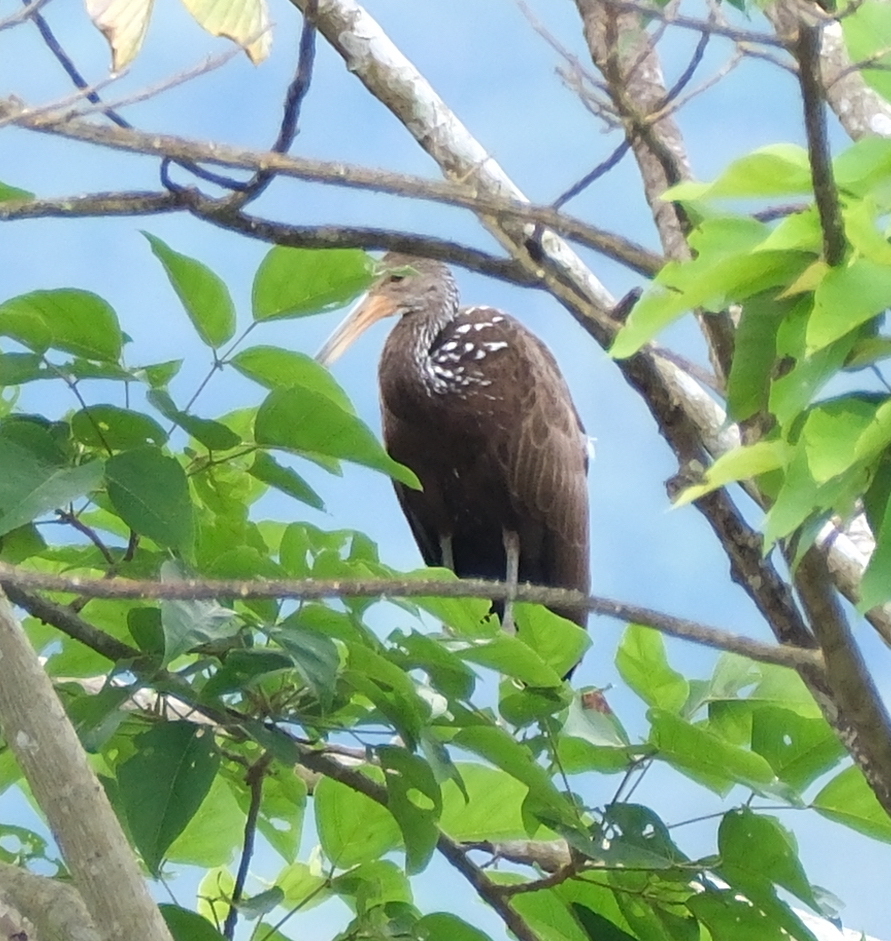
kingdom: Animalia
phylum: Chordata
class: Aves
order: Gruiformes
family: Aramidae
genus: Aramus
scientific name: Aramus guarauna
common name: Limpkin
